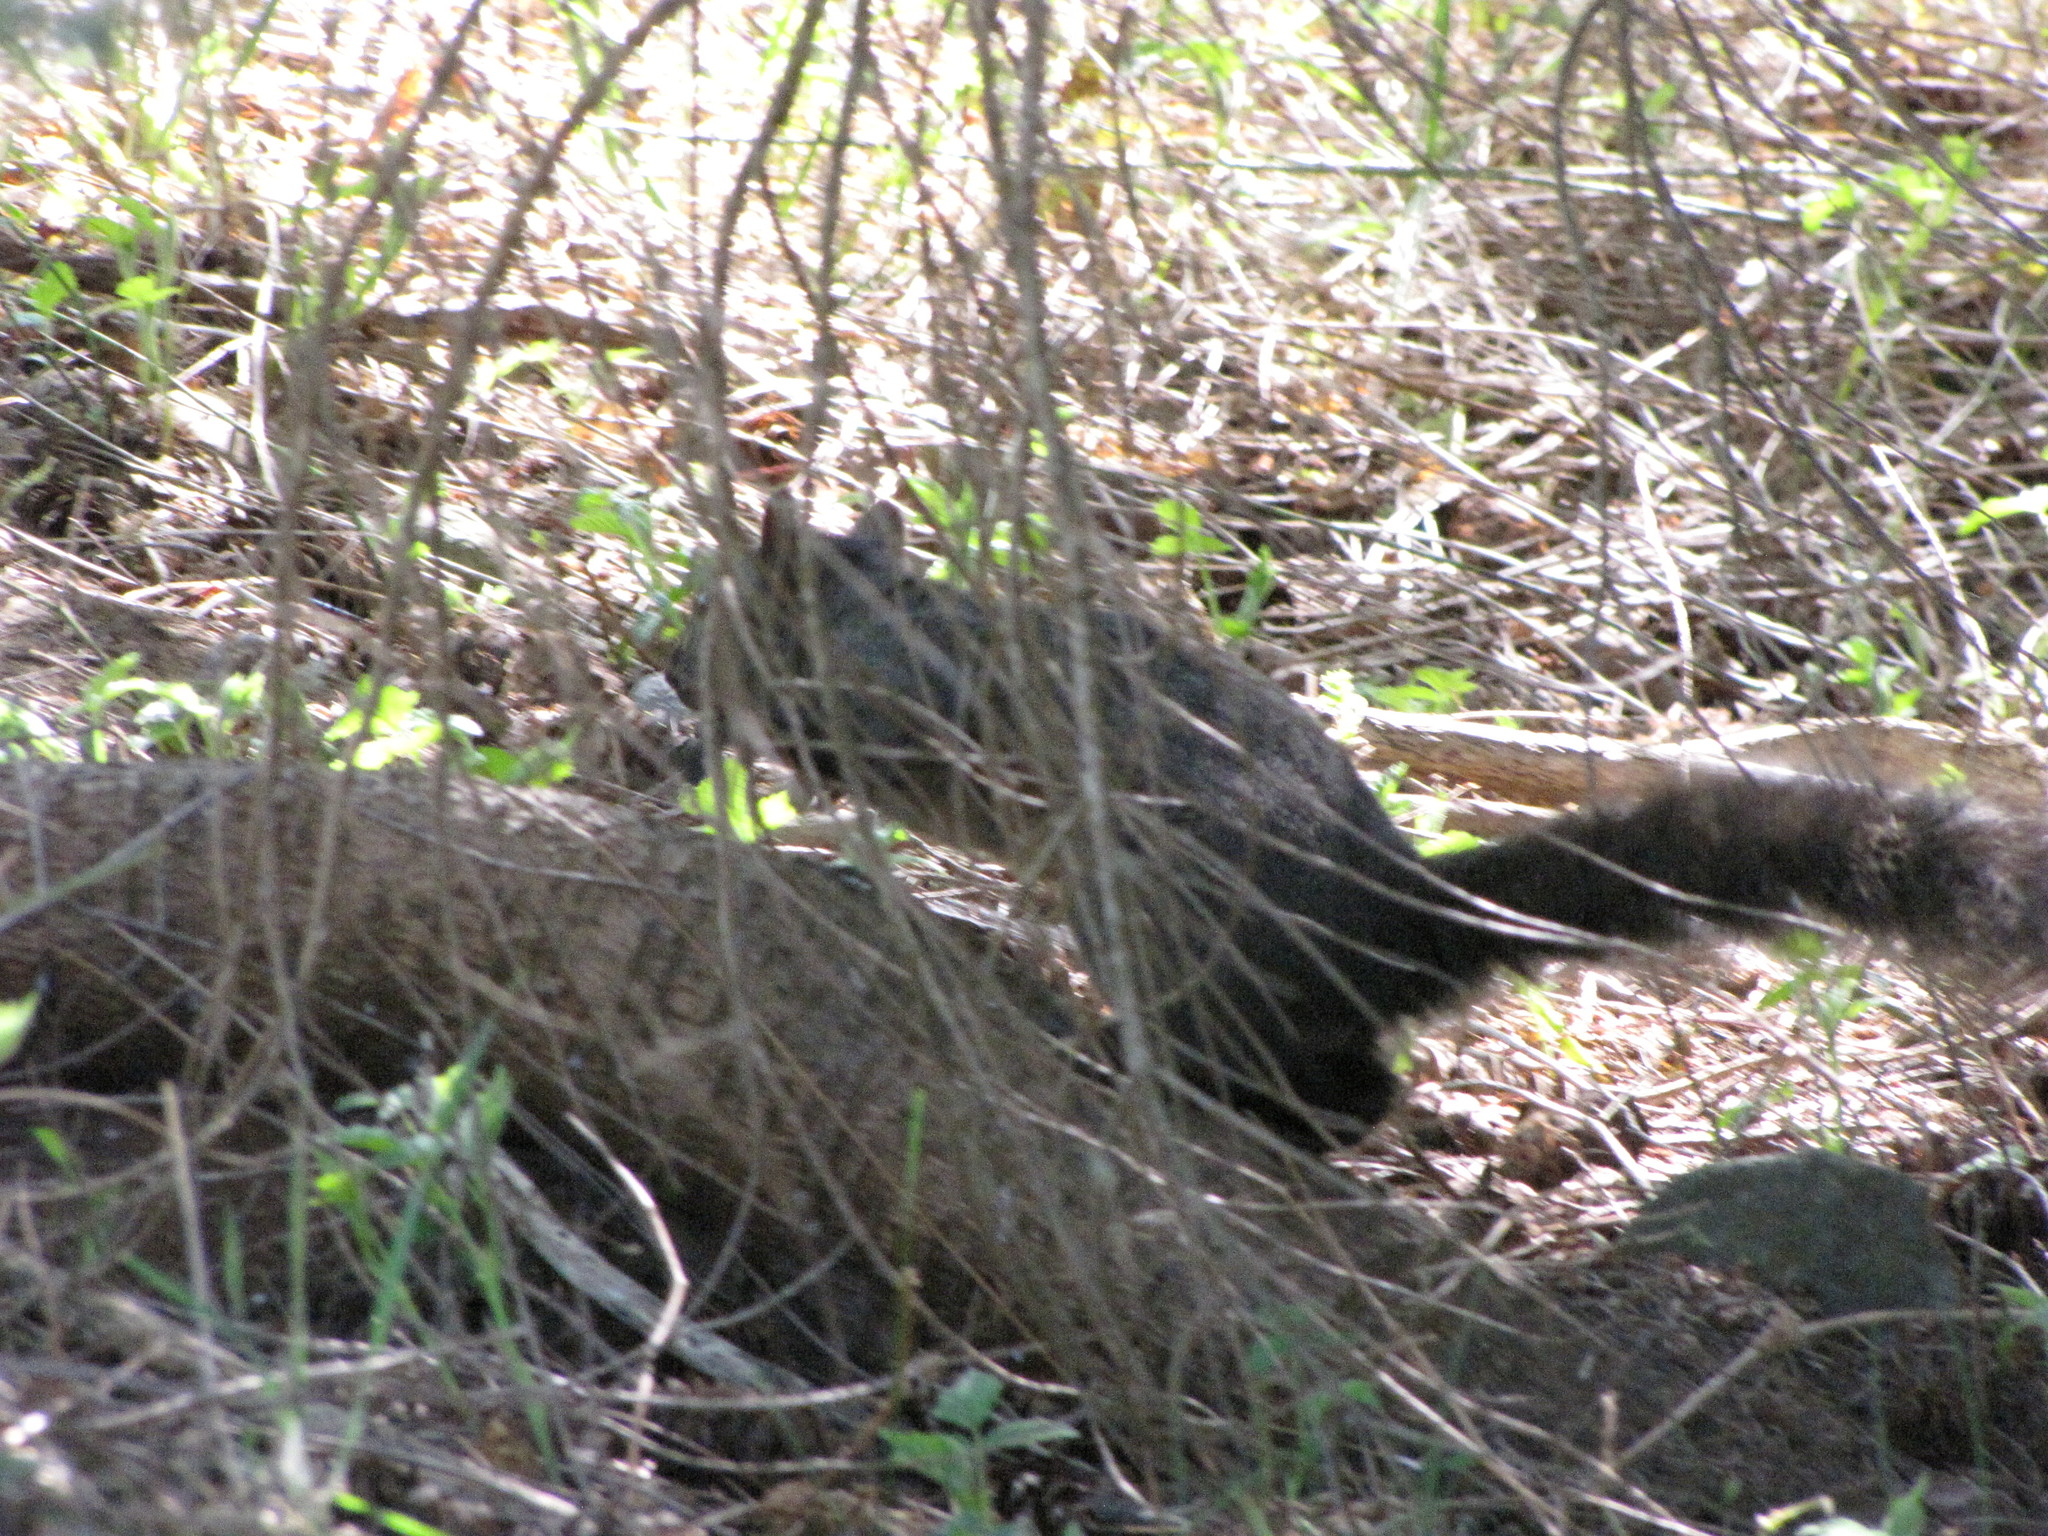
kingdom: Animalia
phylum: Chordata
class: Mammalia
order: Rodentia
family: Sciuridae
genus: Sciurus
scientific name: Sciurus carolinensis
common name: Eastern gray squirrel
